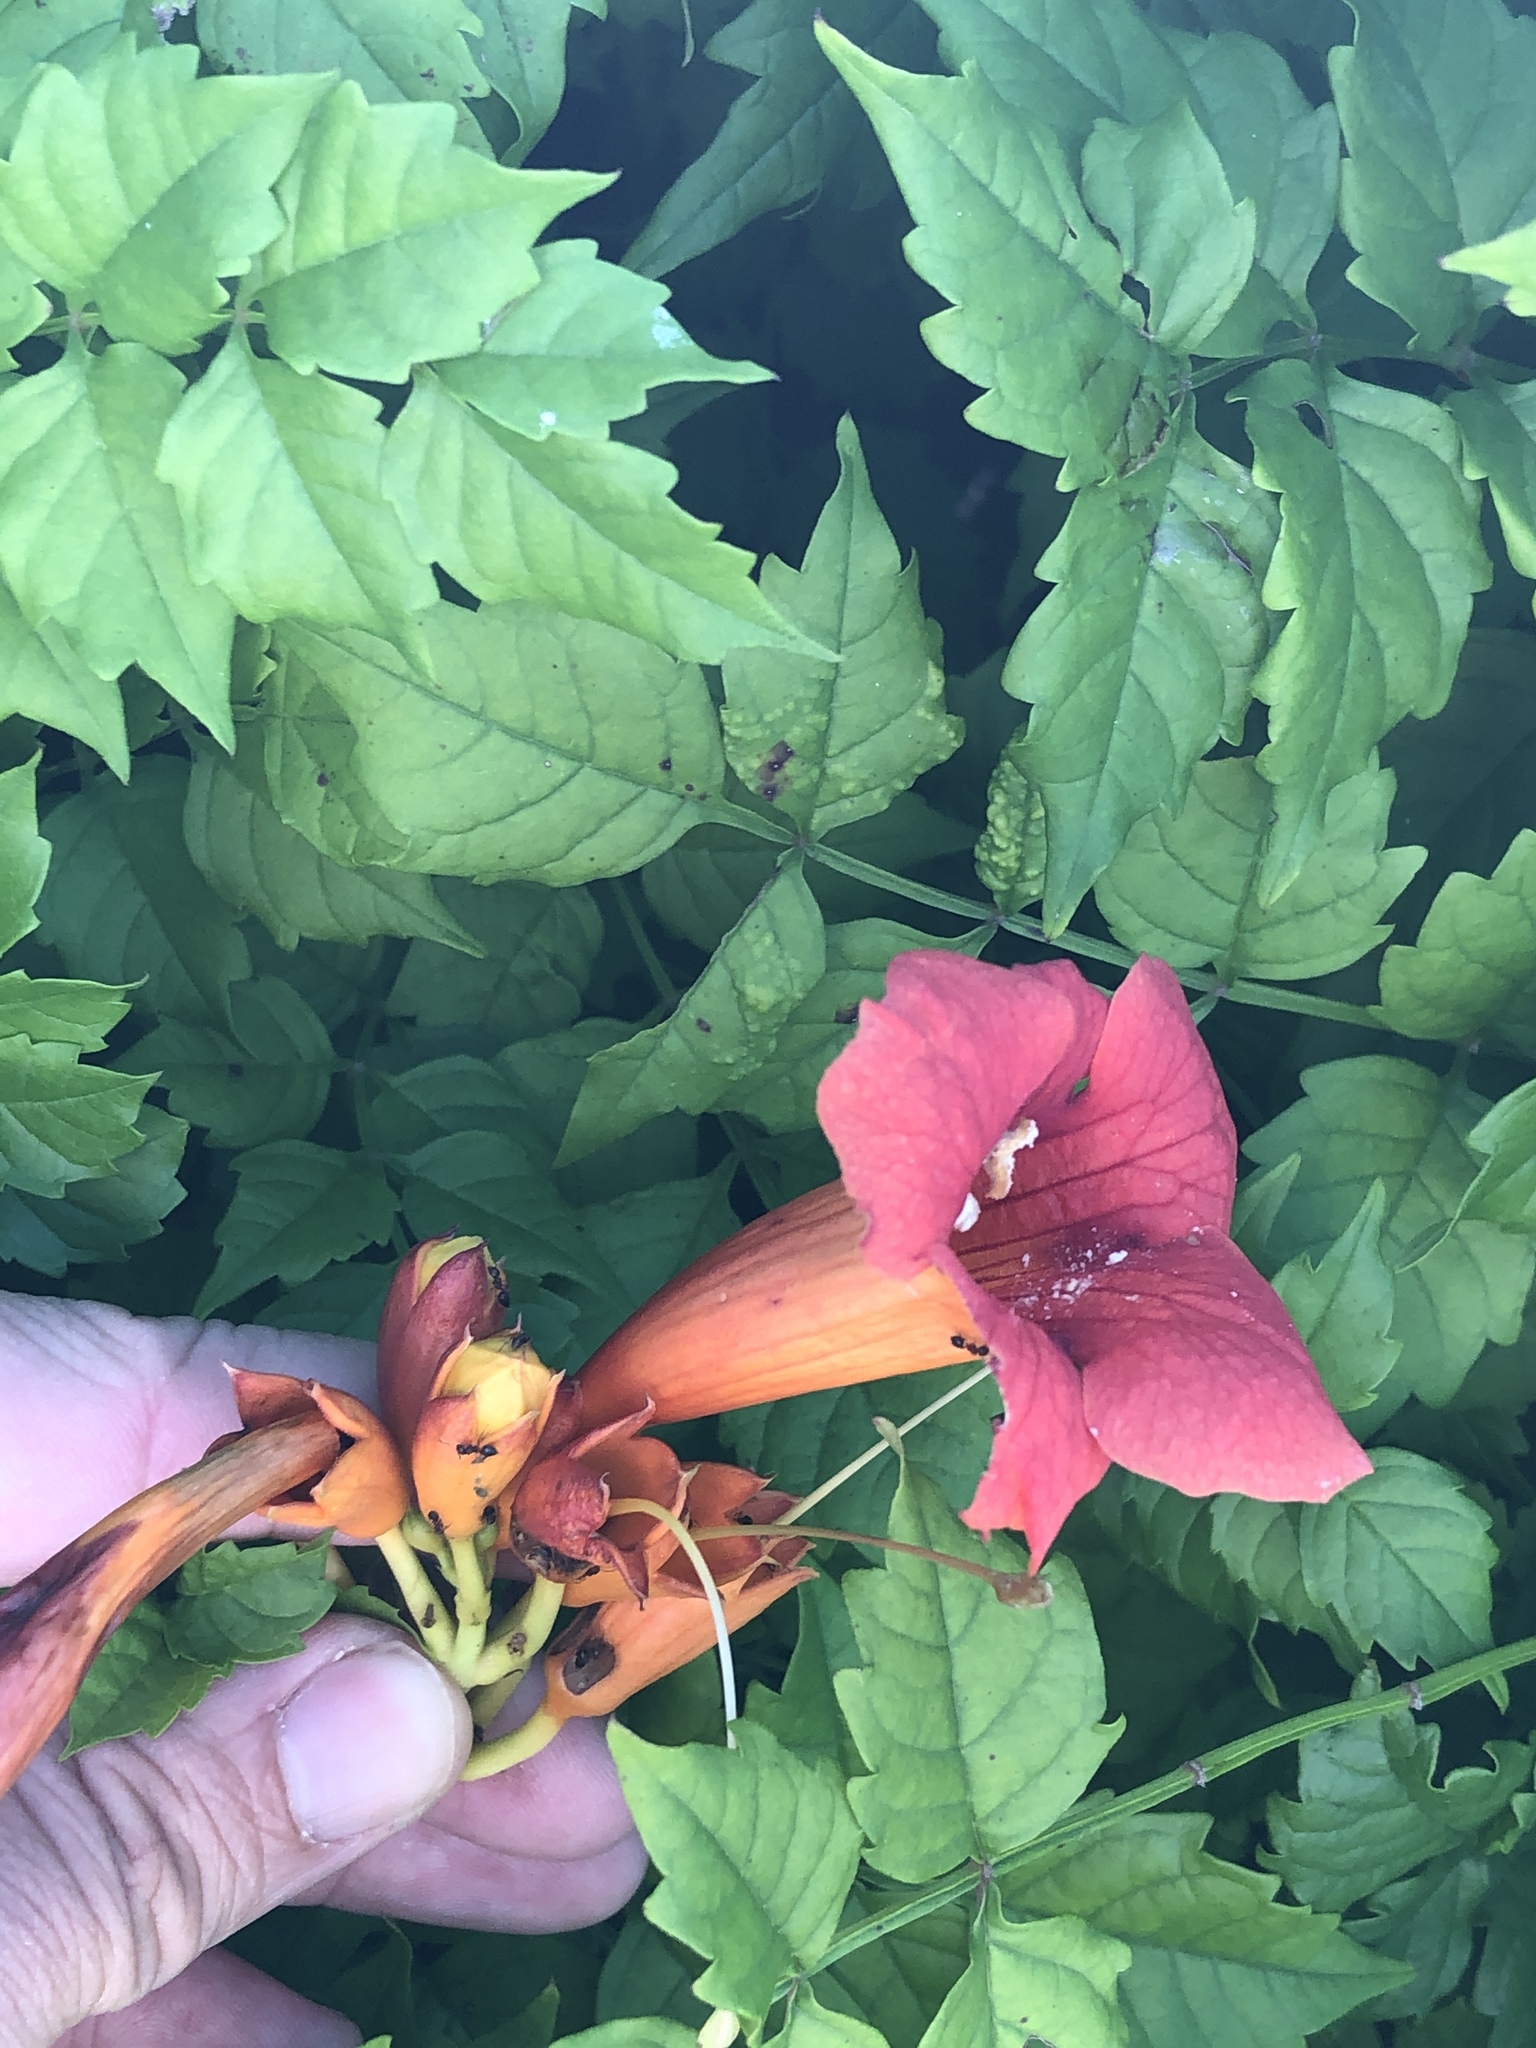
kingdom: Plantae
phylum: Tracheophyta
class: Magnoliopsida
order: Lamiales
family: Bignoniaceae
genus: Campsis
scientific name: Campsis radicans
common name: Trumpet-creeper
